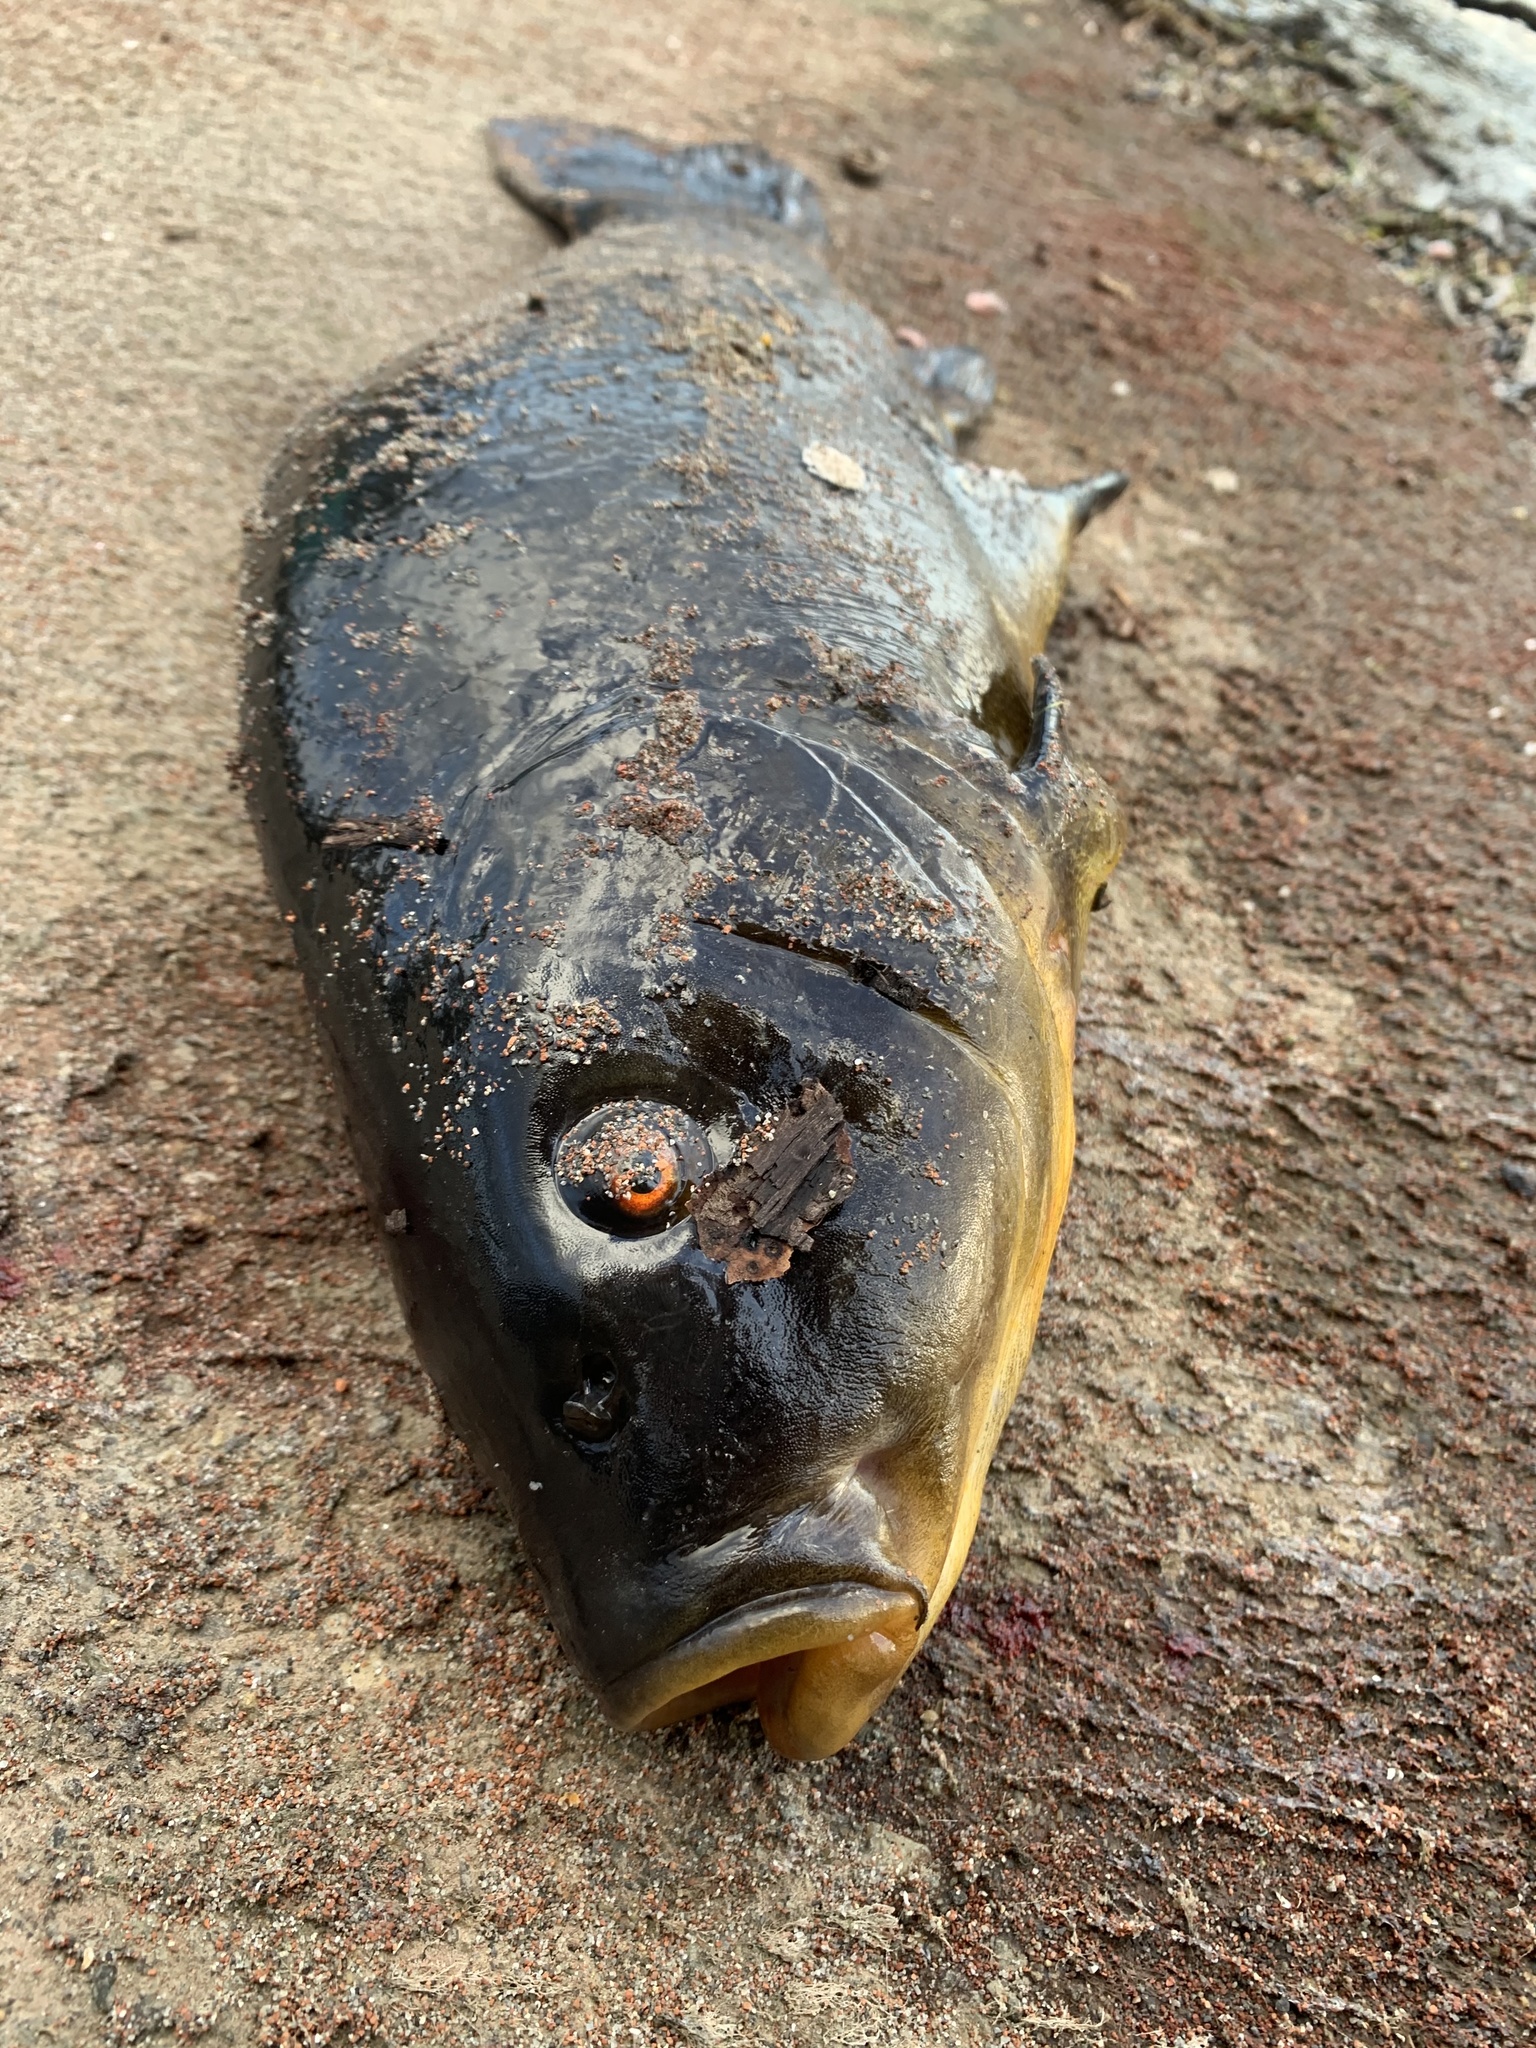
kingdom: Animalia
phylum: Chordata
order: Cypriniformes
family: Cyprinidae
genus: Tinca
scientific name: Tinca tinca
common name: Tench
